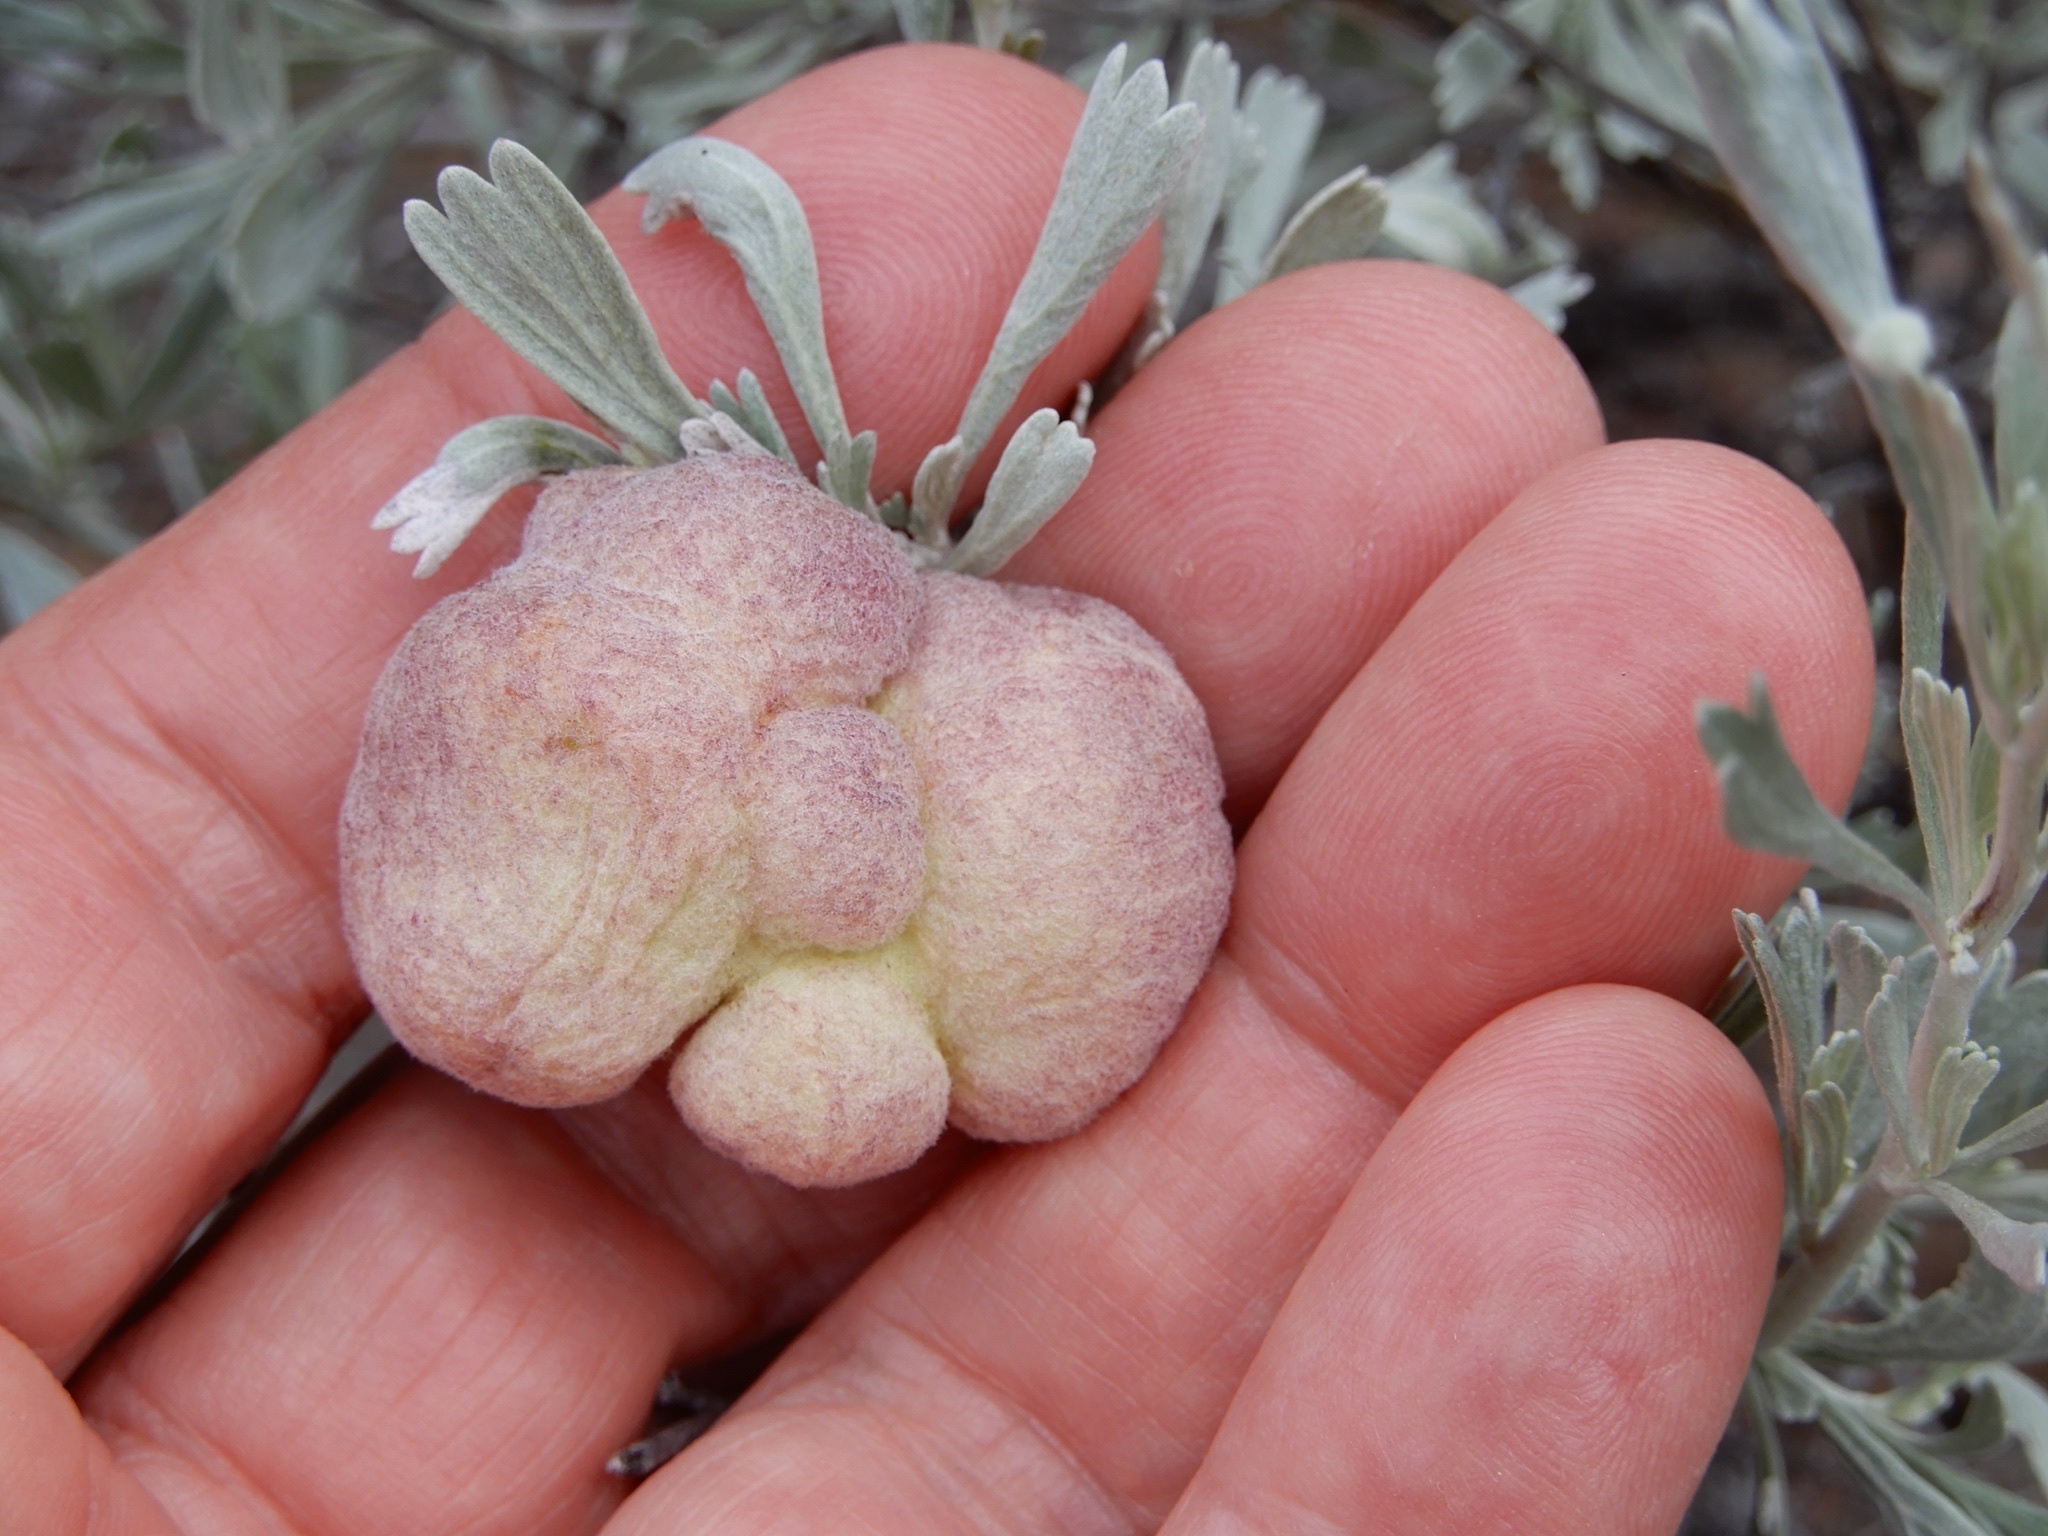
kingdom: Animalia
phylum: Arthropoda
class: Insecta
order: Diptera
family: Cecidomyiidae
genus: Rhopalomyia
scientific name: Rhopalomyia pomum
